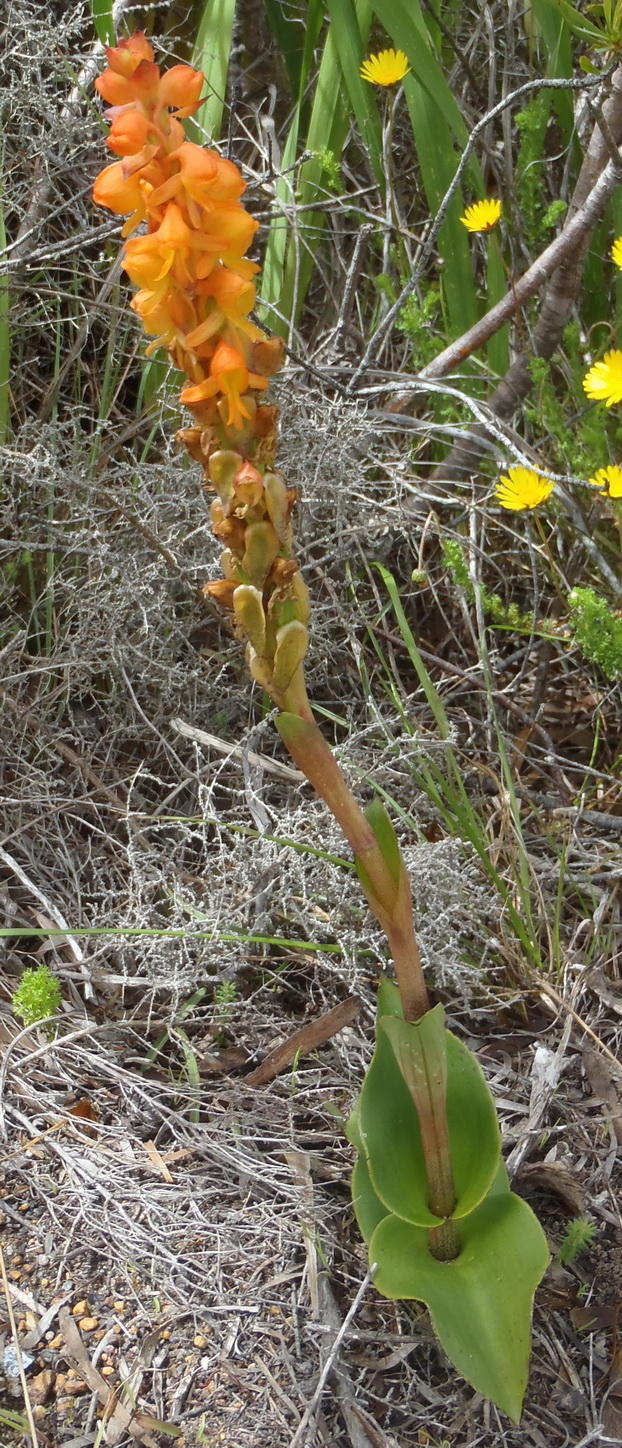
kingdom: Plantae
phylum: Tracheophyta
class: Liliopsida
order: Asparagales
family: Orchidaceae
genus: Satyrium
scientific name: Satyrium coriifolium
